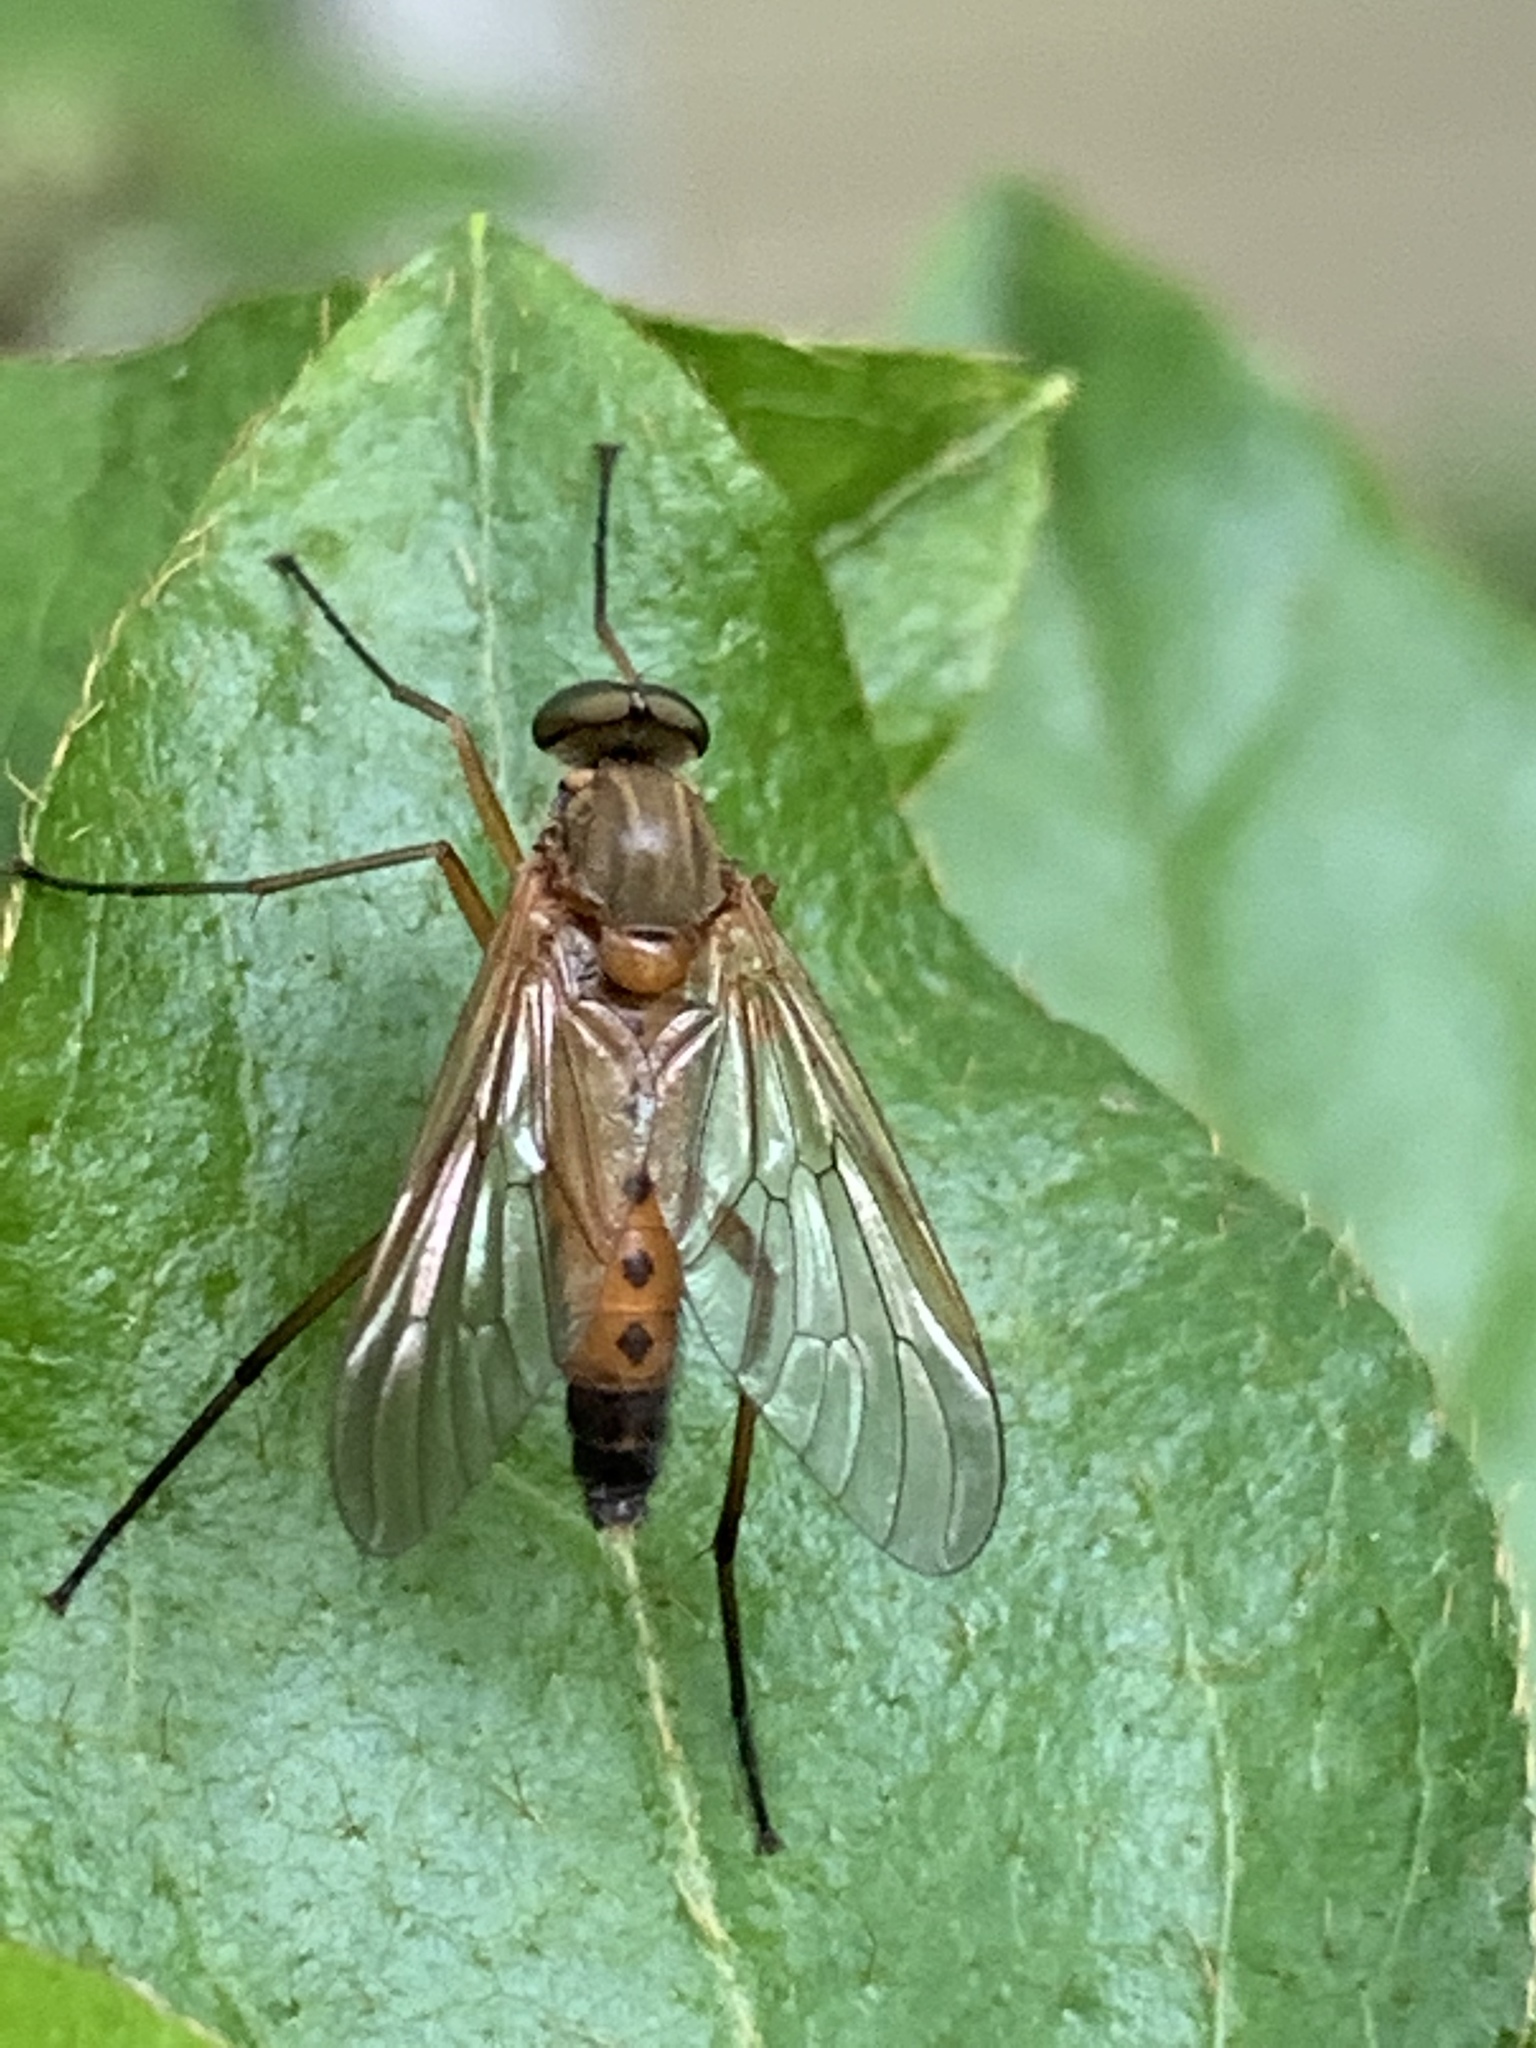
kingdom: Animalia
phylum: Arthropoda
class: Insecta
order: Diptera
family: Rhagionidae
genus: Rhagio
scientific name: Rhagio tringaria
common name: Marsh snipefly
